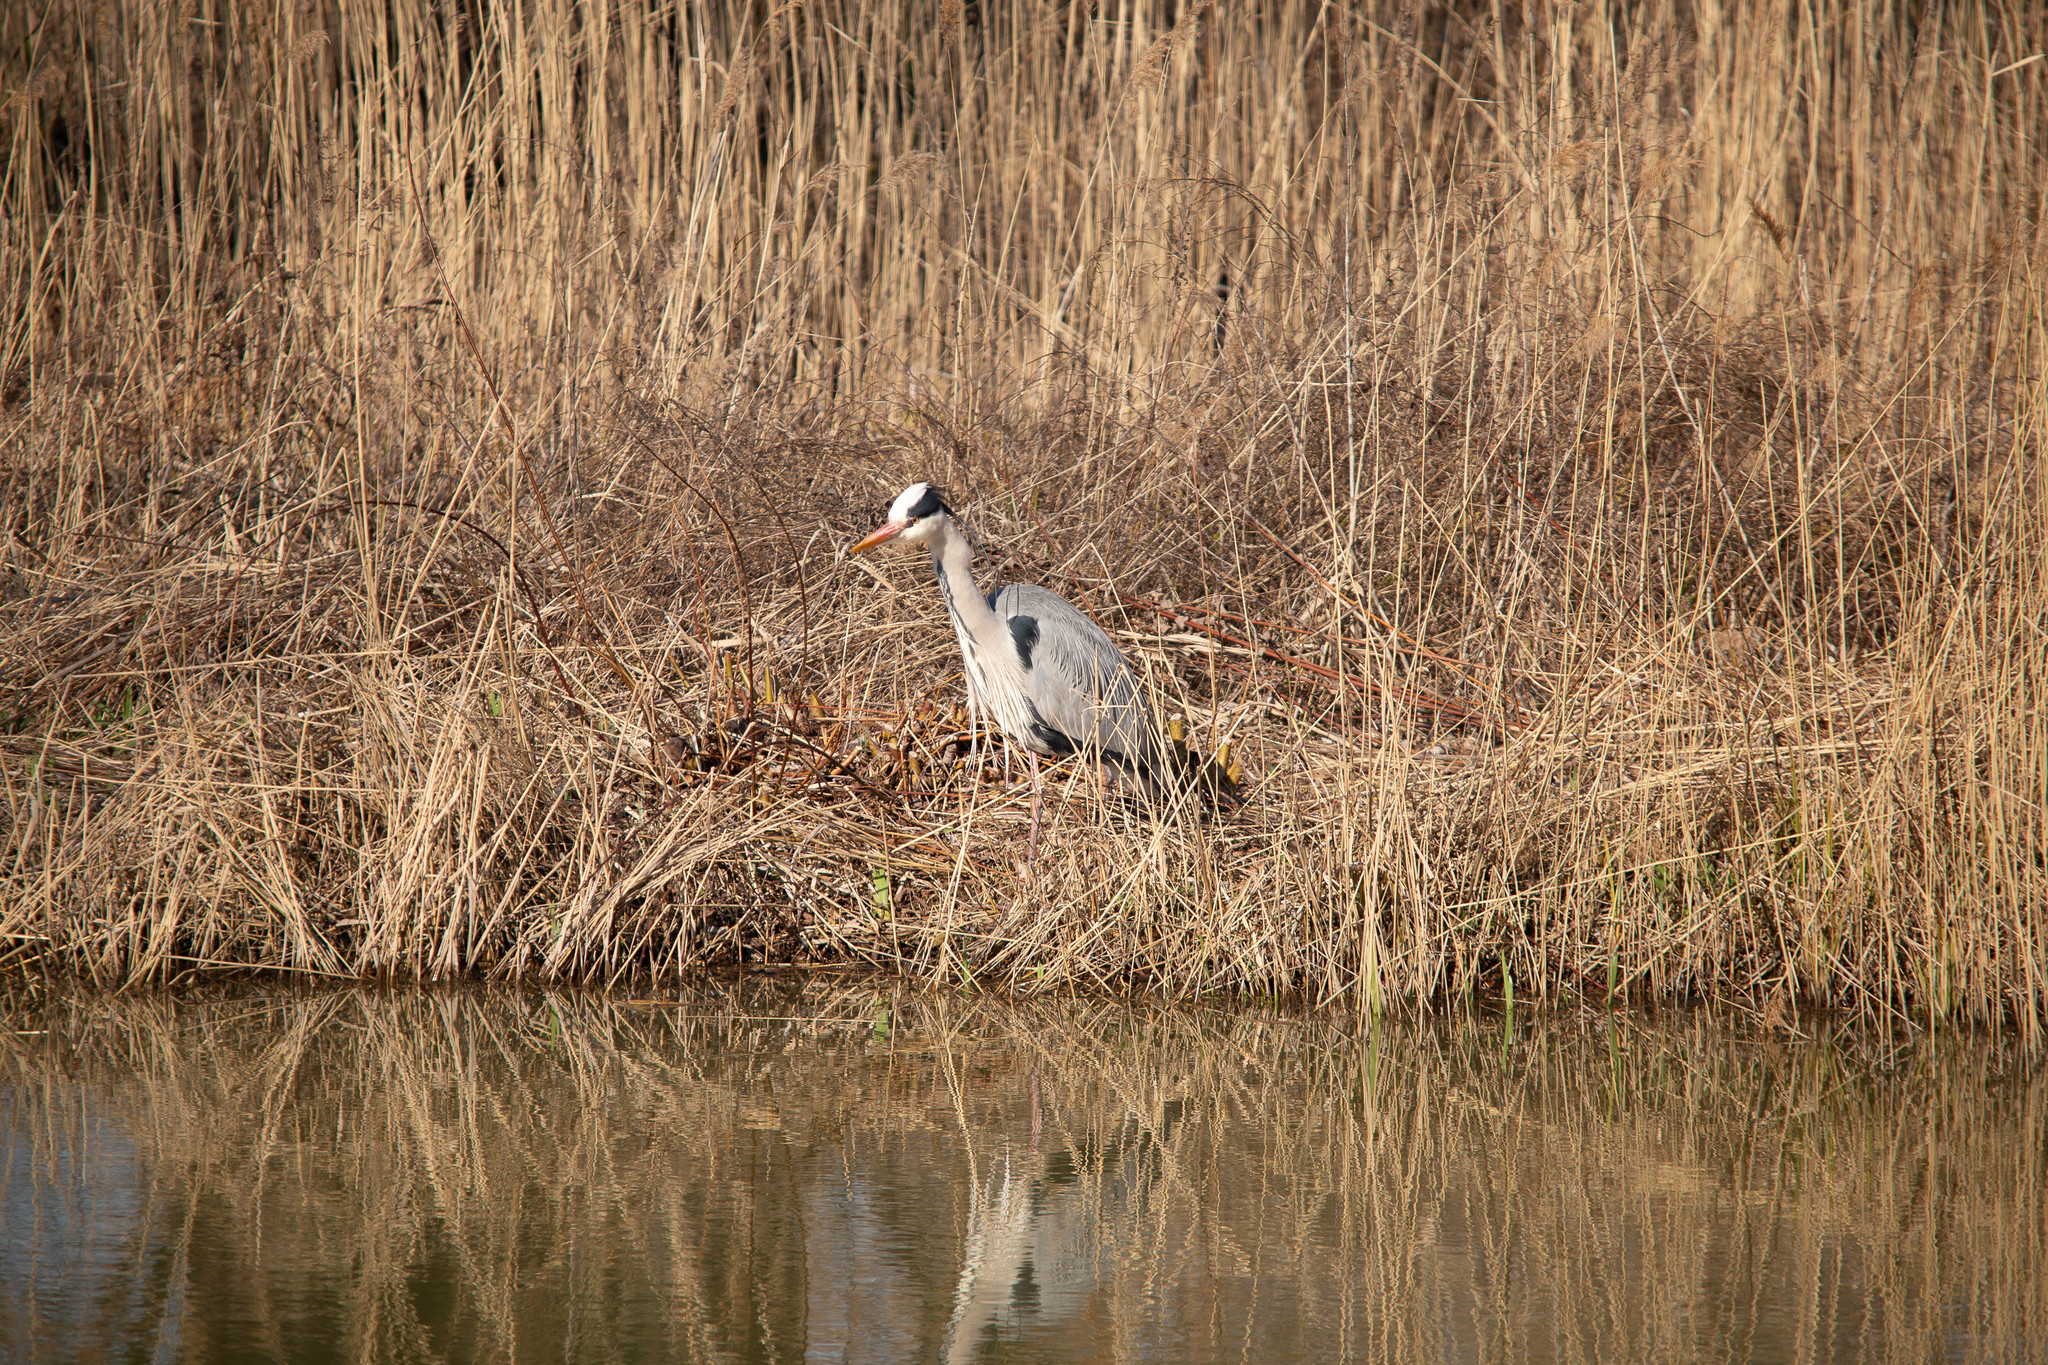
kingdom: Animalia
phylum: Chordata
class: Aves
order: Pelecaniformes
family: Ardeidae
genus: Ardea
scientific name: Ardea cinerea
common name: Grey heron
